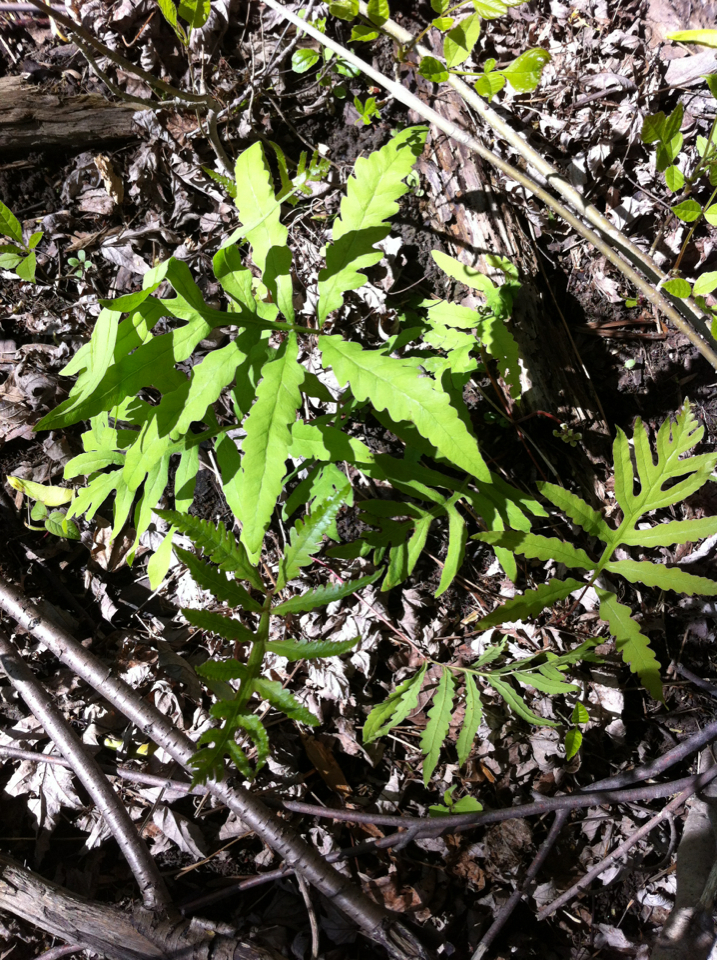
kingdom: Plantae
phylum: Tracheophyta
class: Polypodiopsida
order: Polypodiales
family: Onocleaceae
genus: Onoclea
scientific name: Onoclea sensibilis
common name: Sensitive fern
